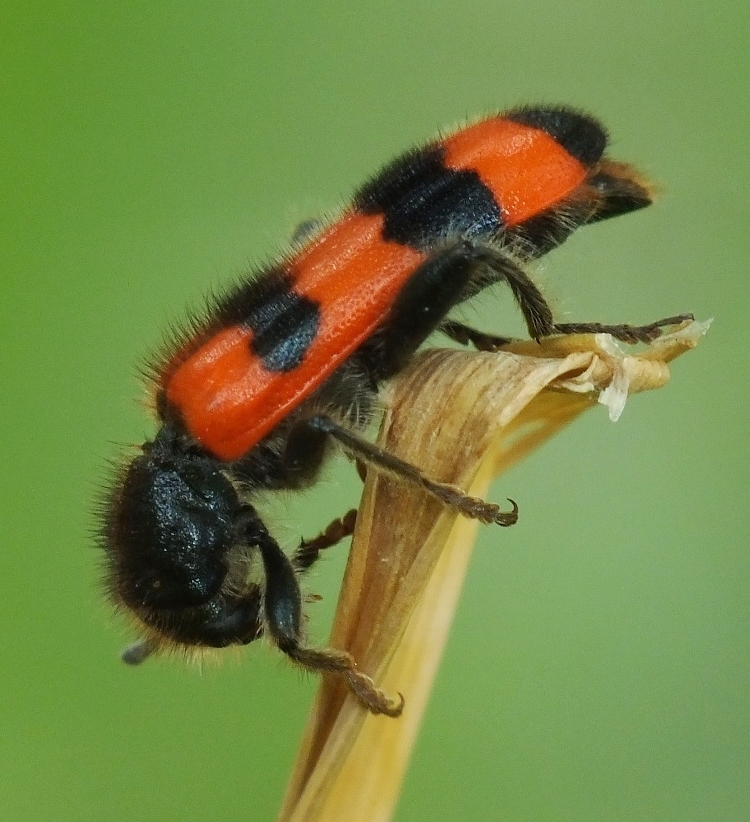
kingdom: Animalia
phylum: Arthropoda
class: Insecta
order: Coleoptera
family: Cleridae
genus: Trichodes
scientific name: Trichodes apiarius
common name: Bee-eating beetle
